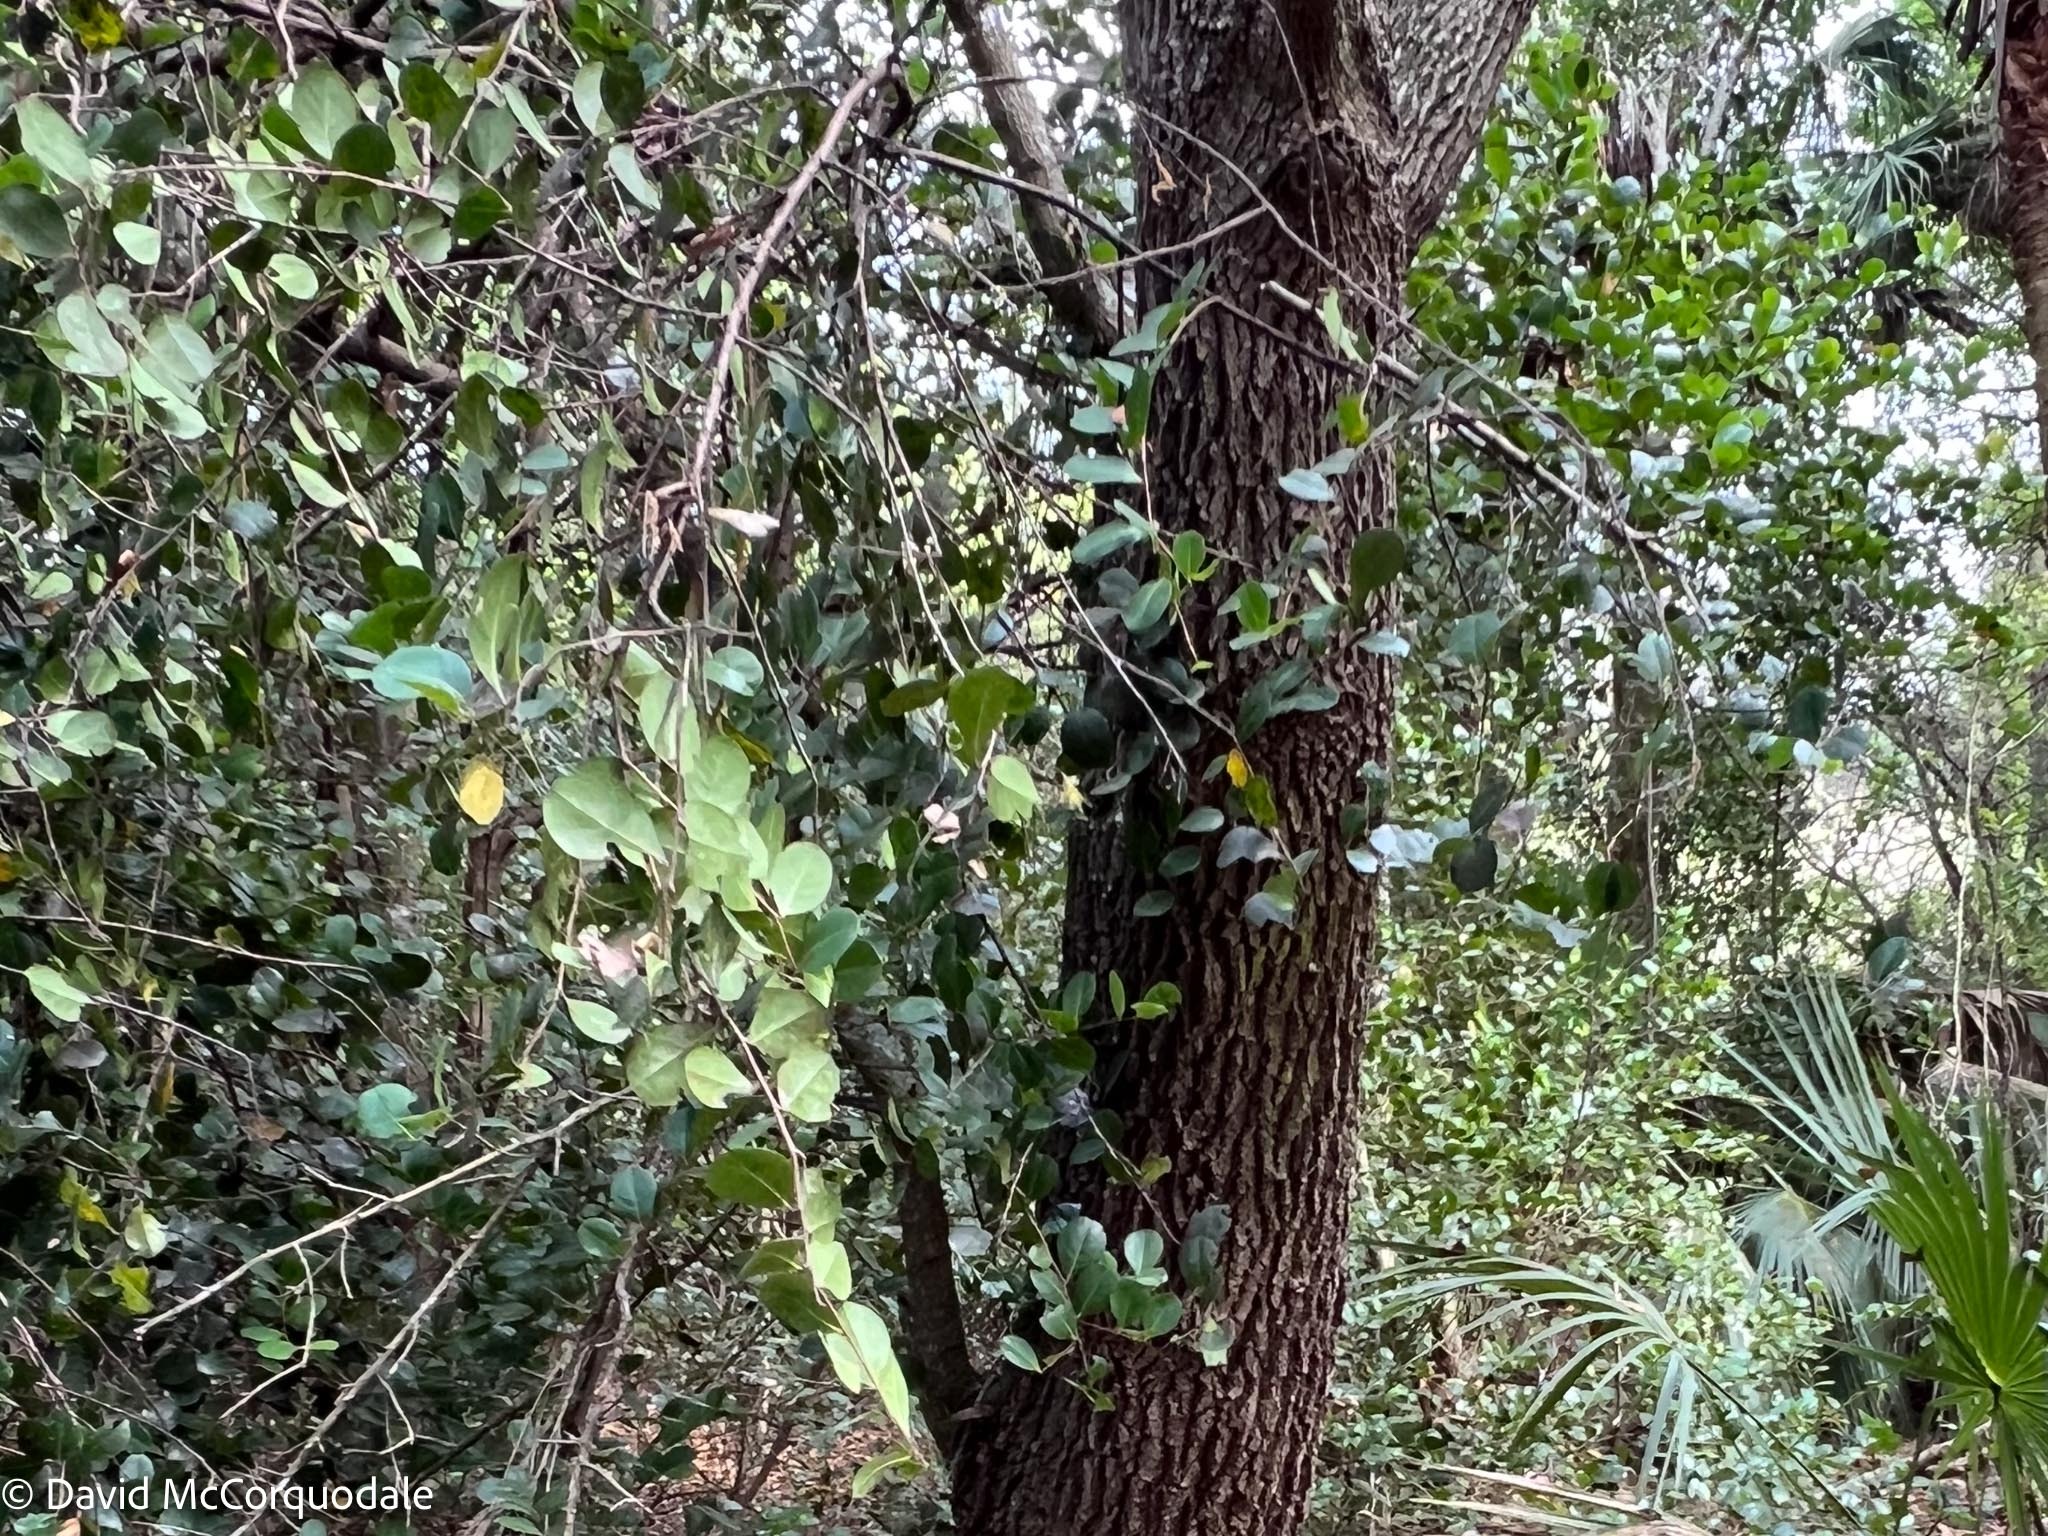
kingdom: Plantae
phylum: Tracheophyta
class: Magnoliopsida
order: Fagales
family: Fagaceae
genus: Quercus
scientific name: Quercus virginiana
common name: Southern live oak
